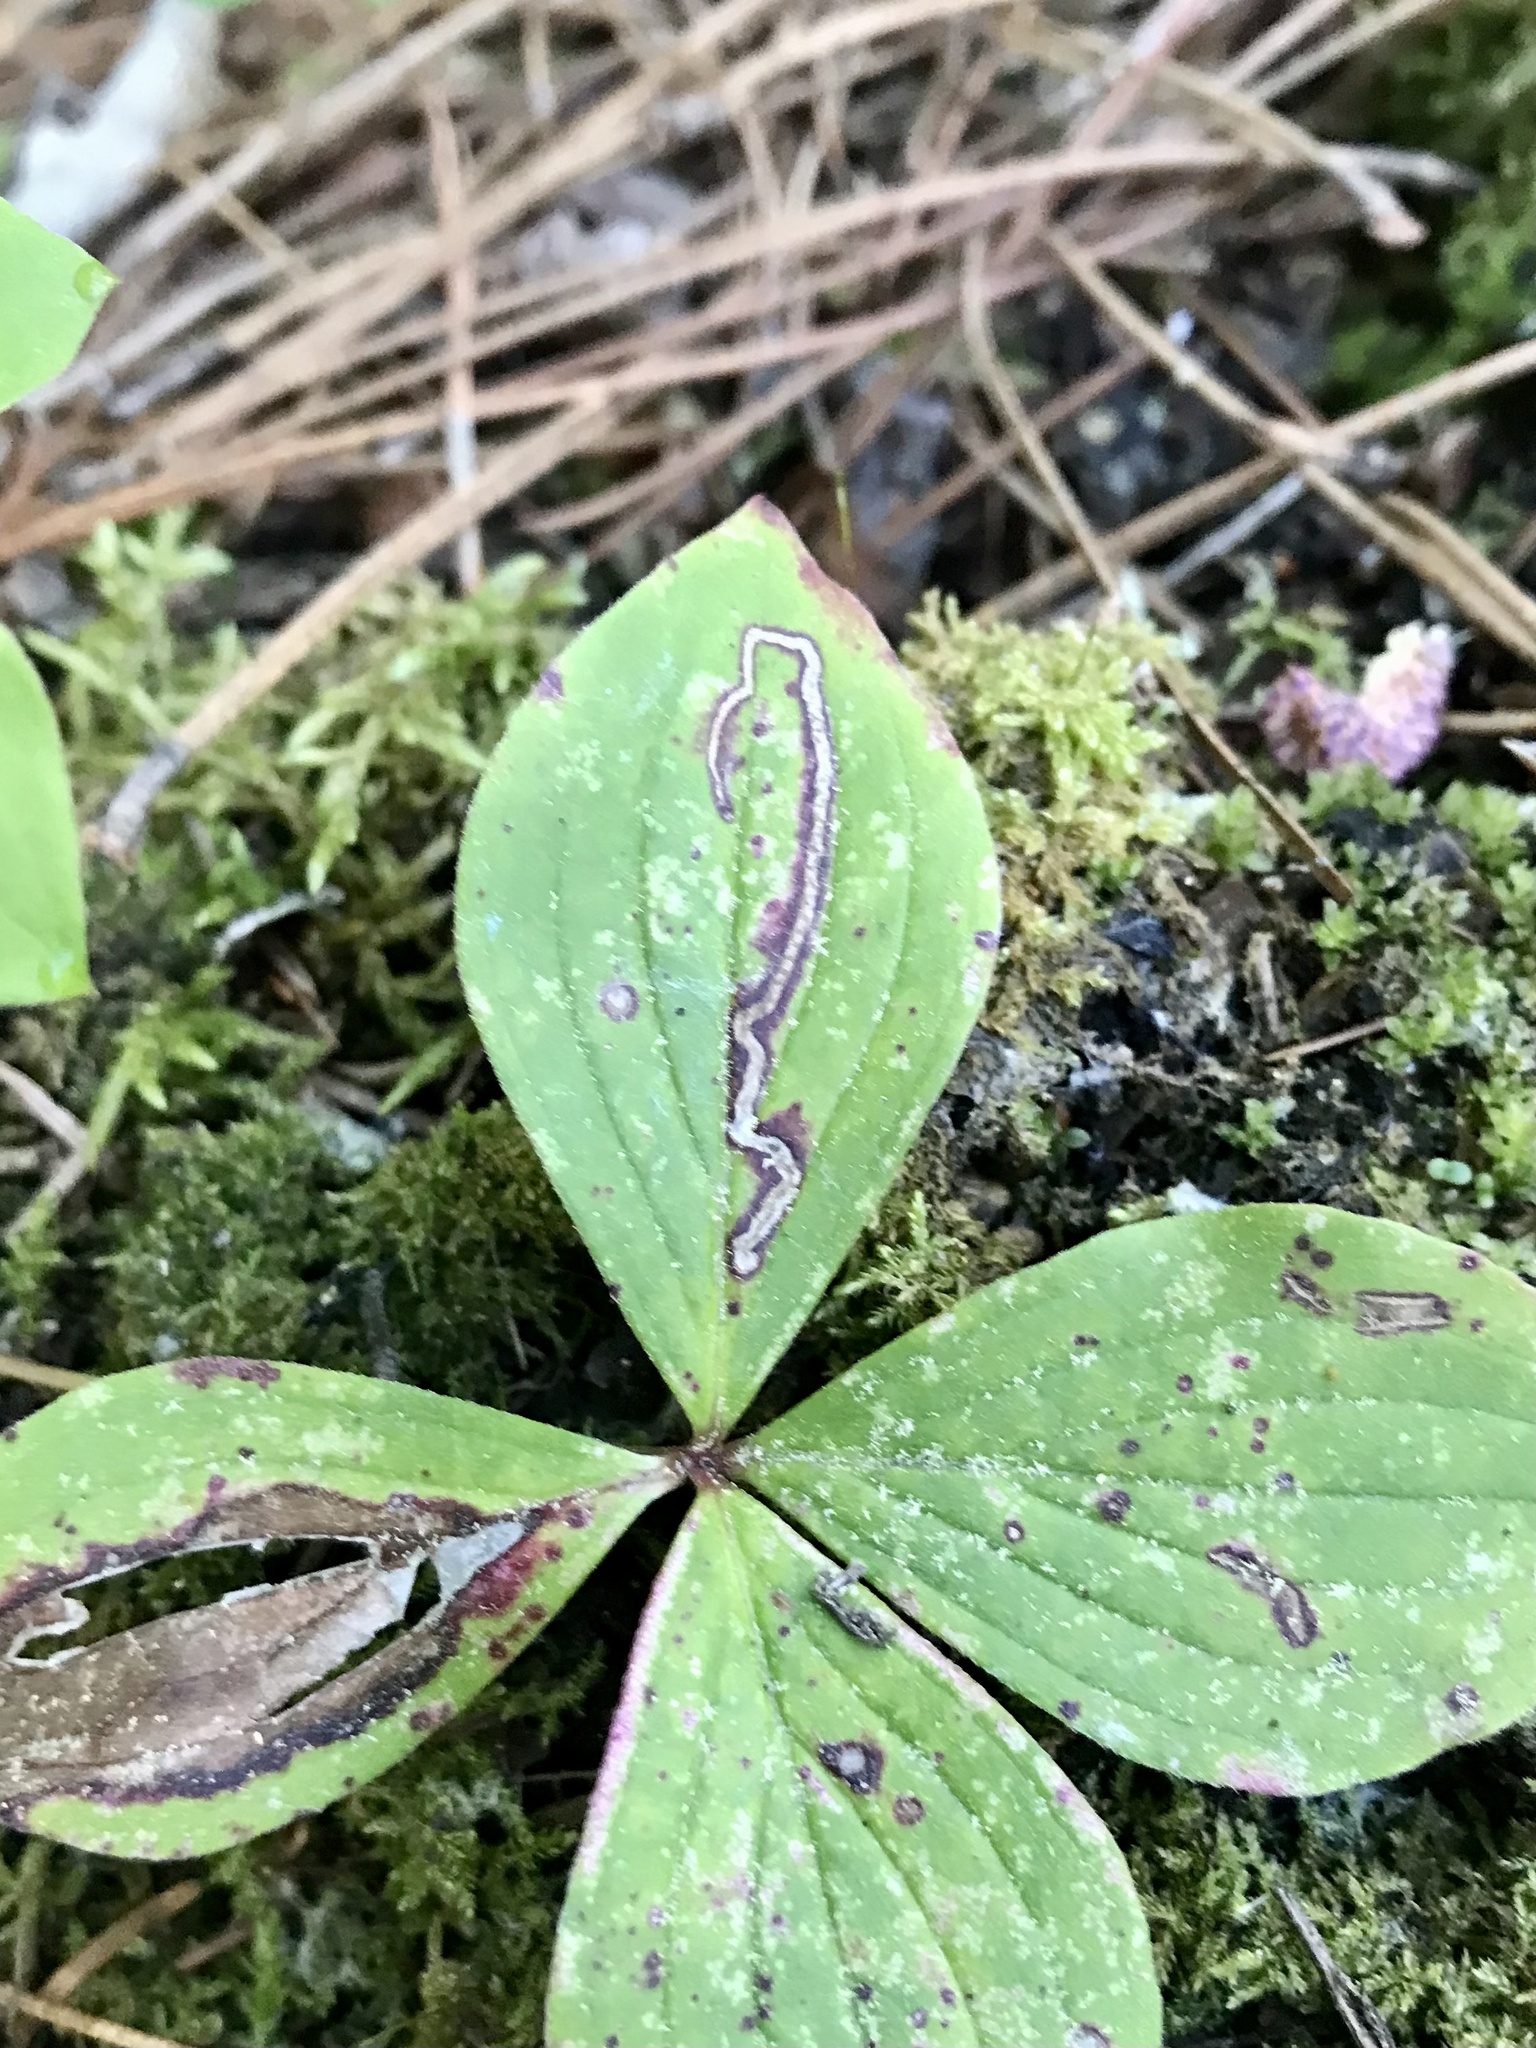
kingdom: Animalia
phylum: Arthropoda
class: Insecta
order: Diptera
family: Agromyzidae
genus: Phytomyza
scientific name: Phytomyza agromyzina
